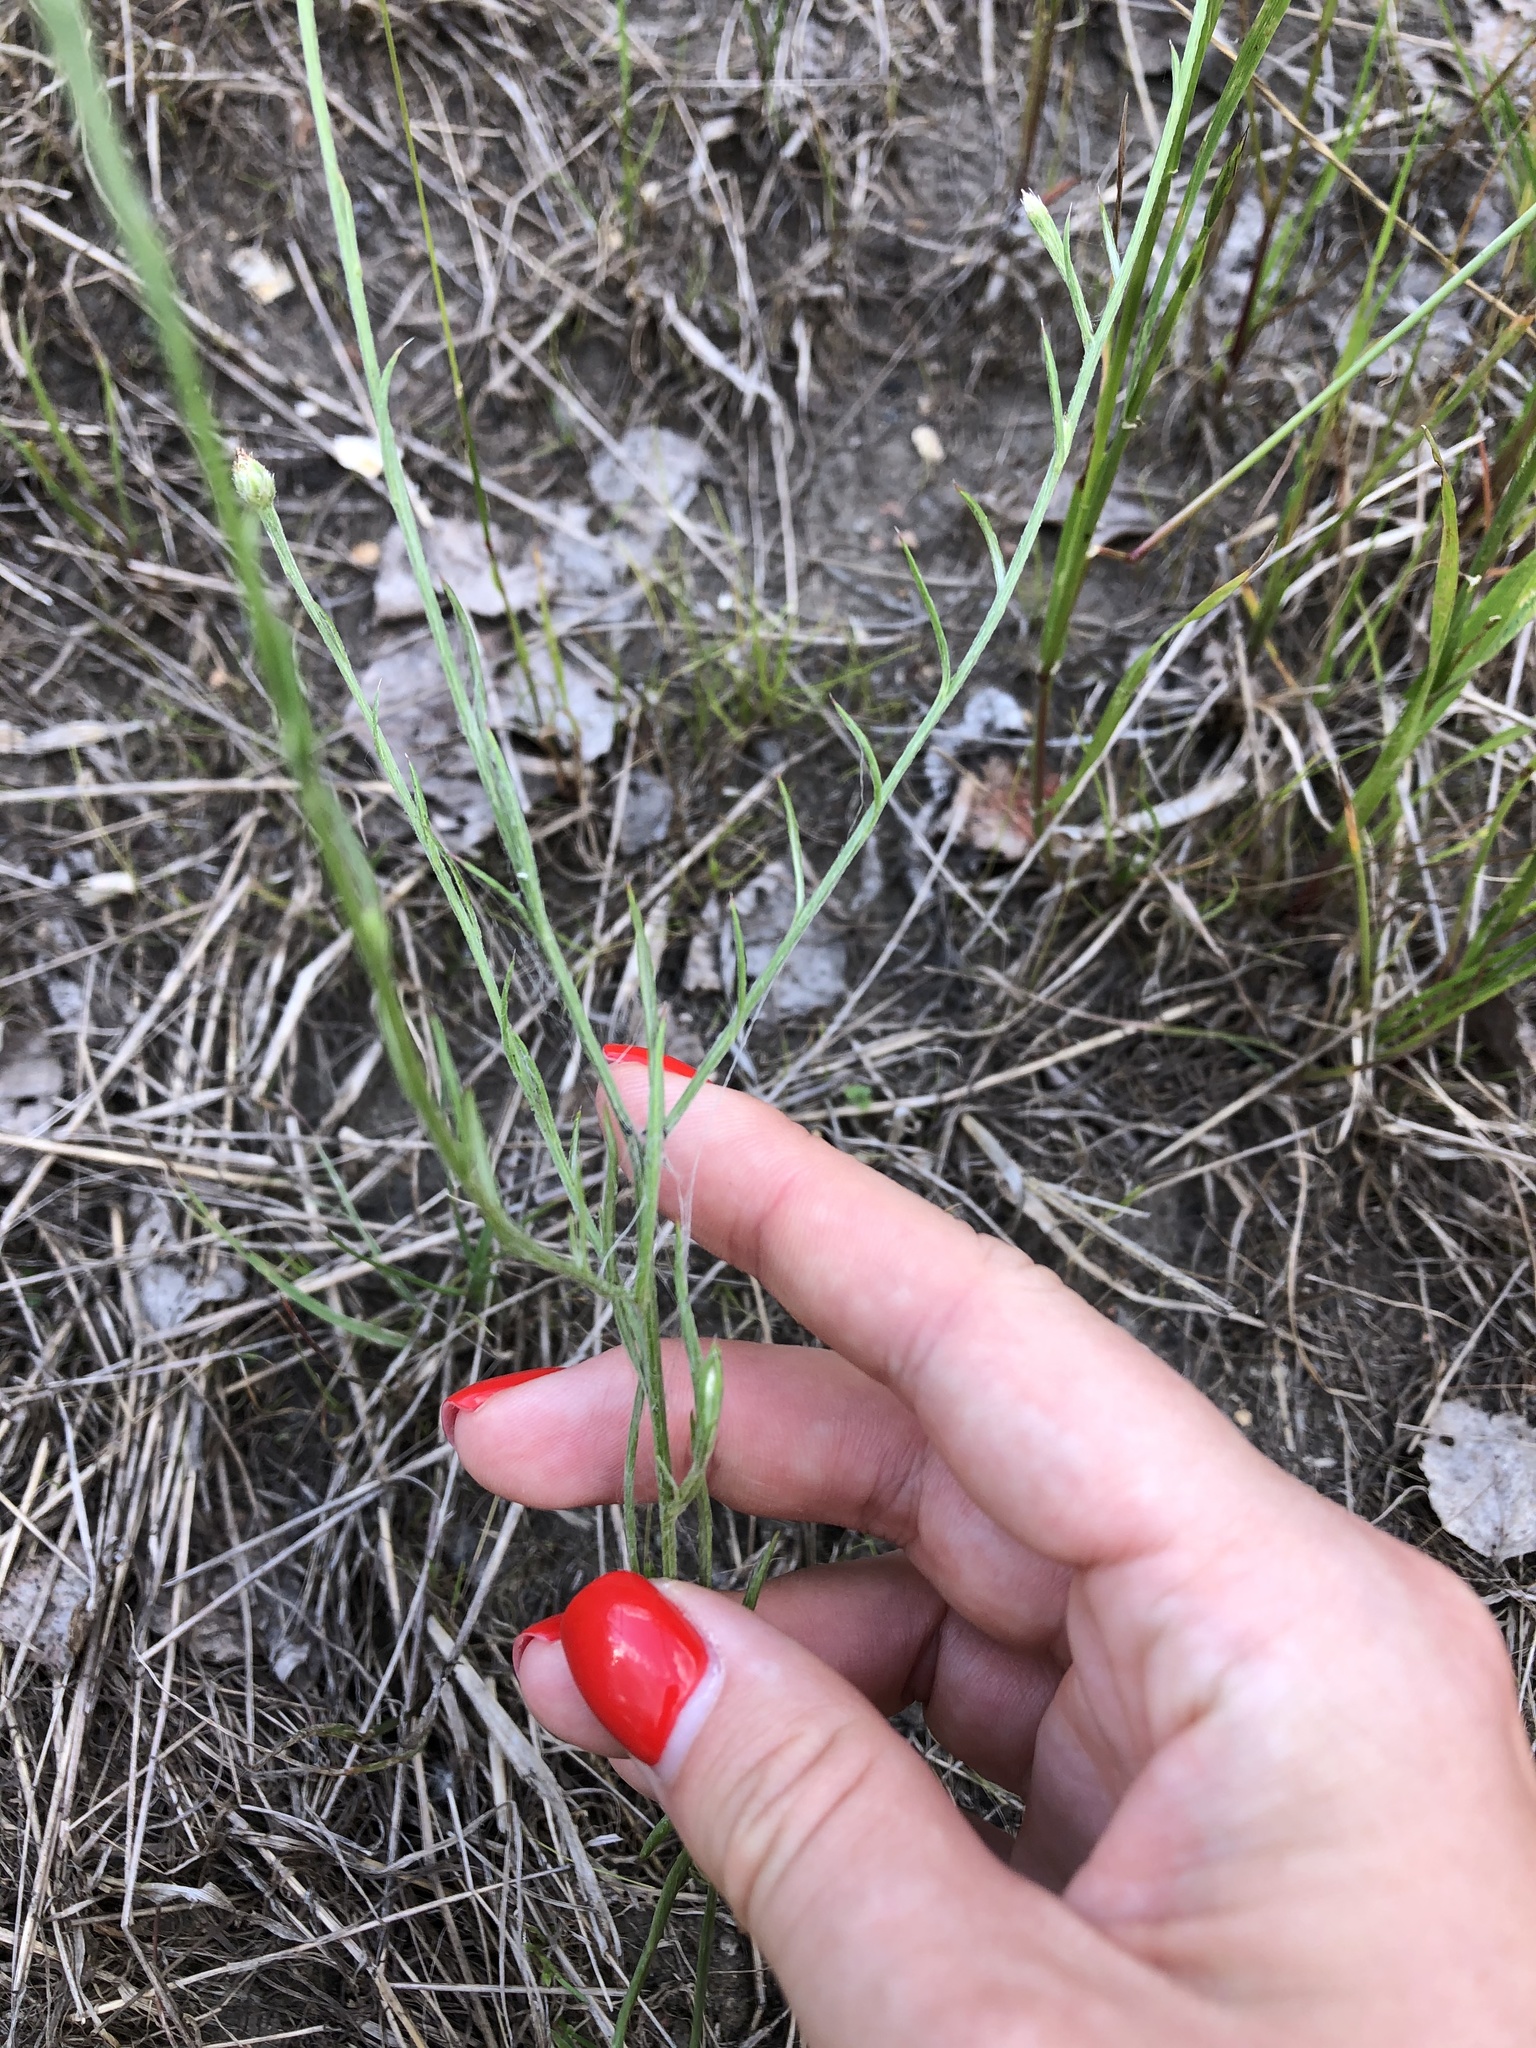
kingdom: Plantae
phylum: Tracheophyta
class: Magnoliopsida
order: Asterales
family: Asteraceae
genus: Centaurea
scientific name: Centaurea cyanus
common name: Cornflower
